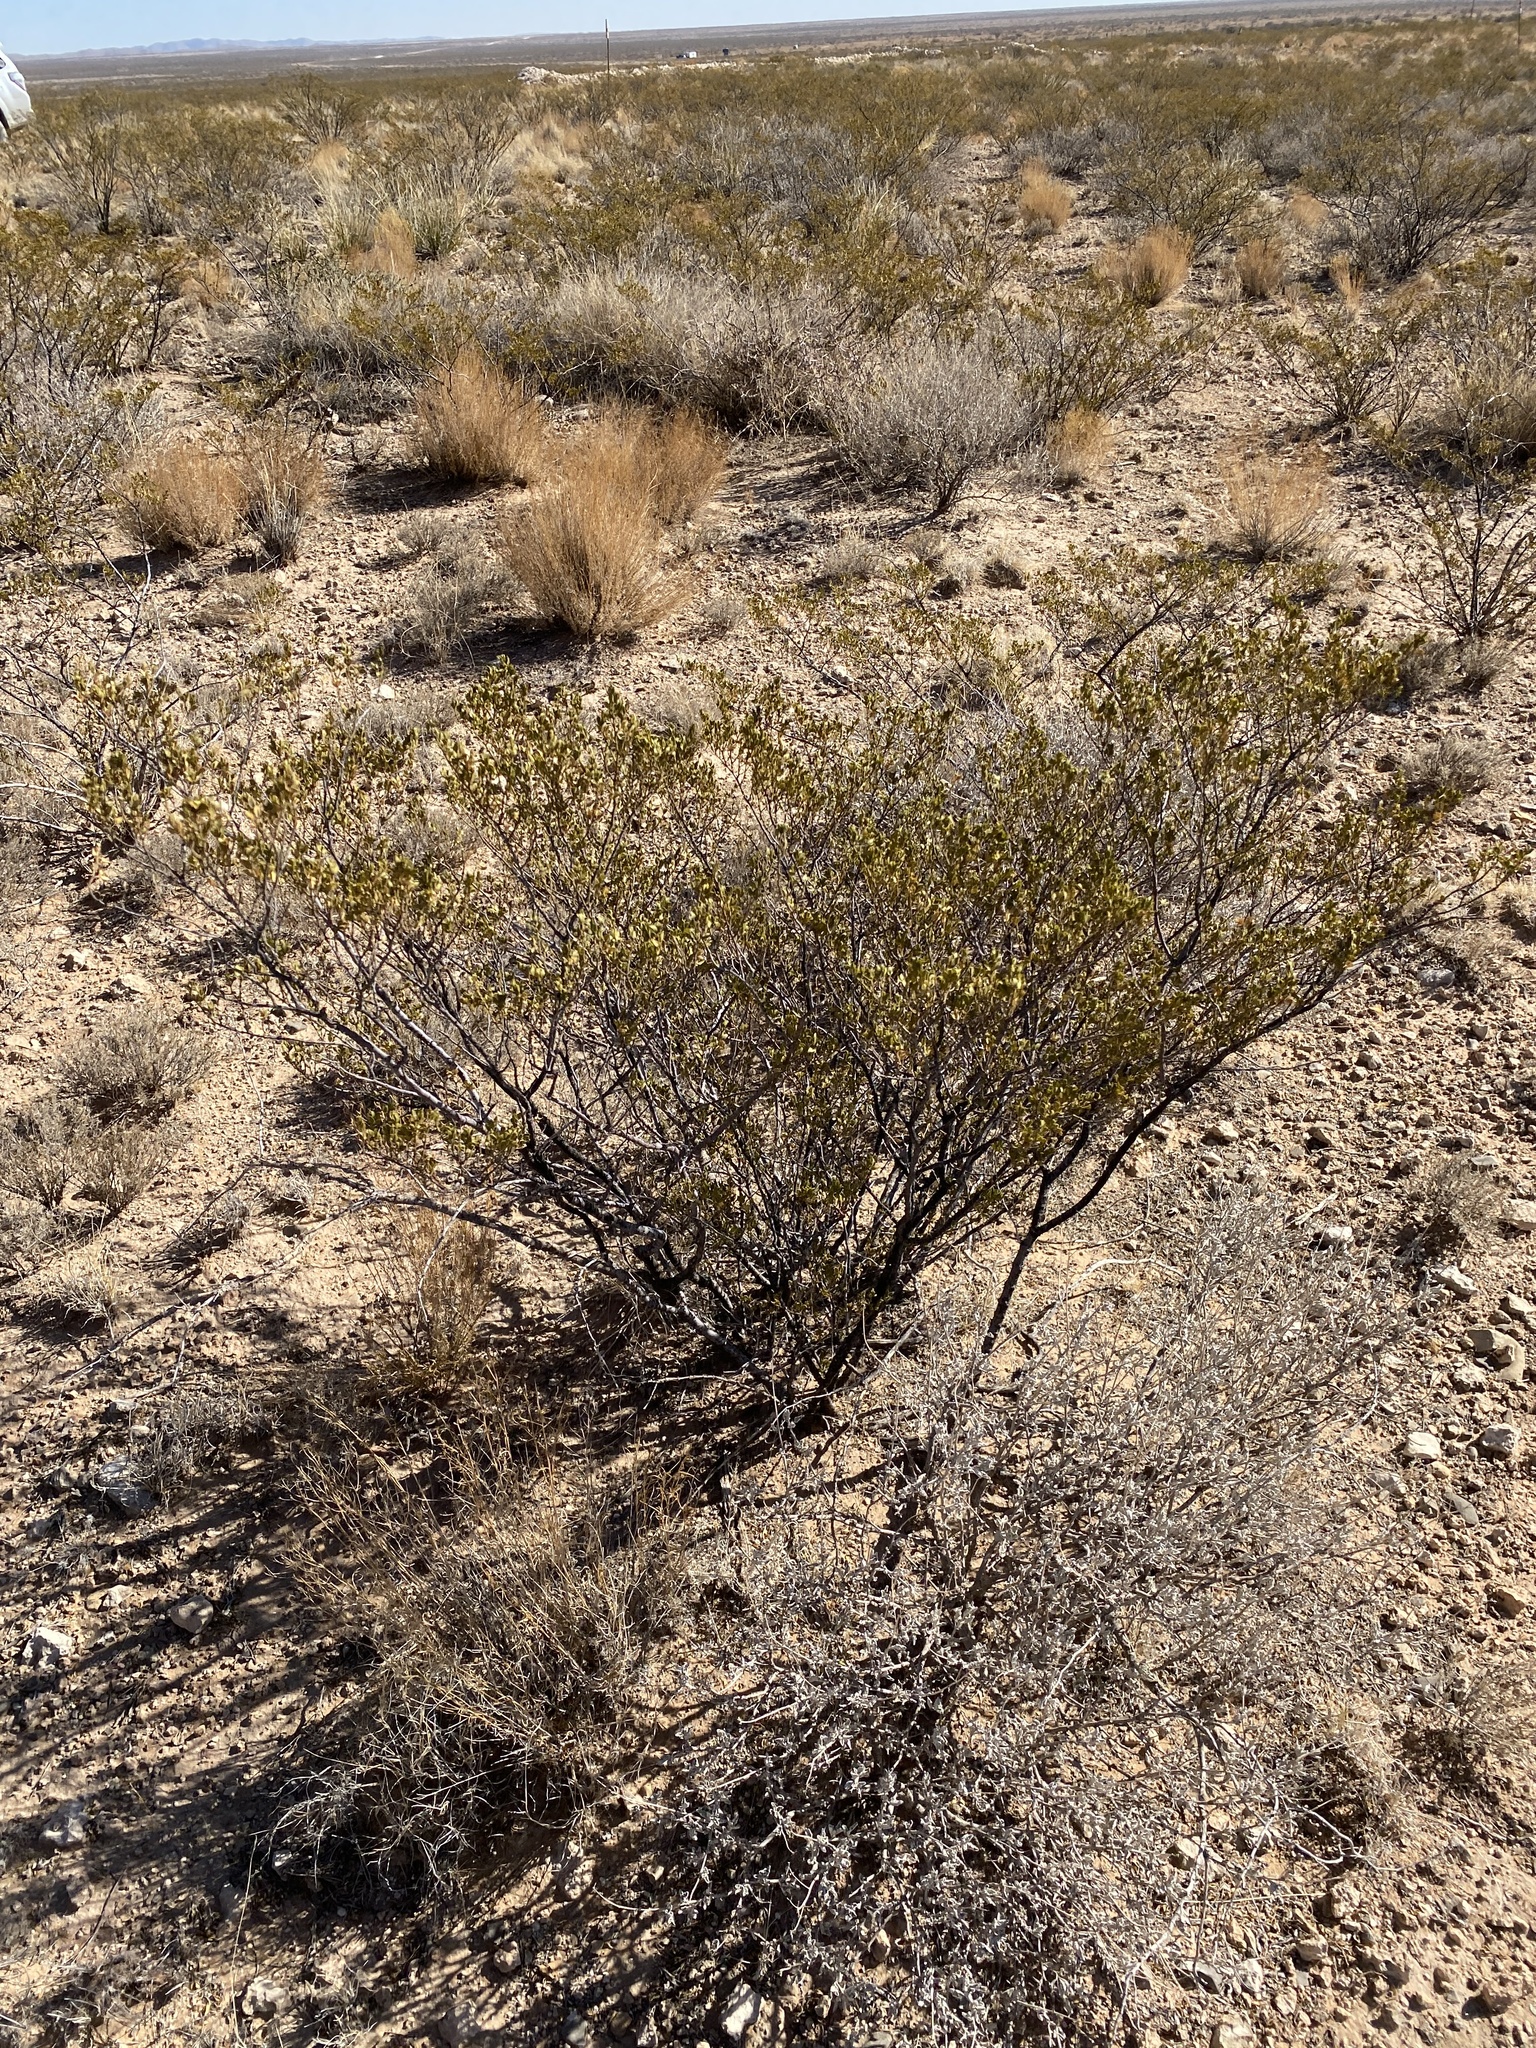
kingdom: Plantae
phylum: Tracheophyta
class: Magnoliopsida
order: Zygophyllales
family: Zygophyllaceae
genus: Larrea
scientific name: Larrea tridentata
